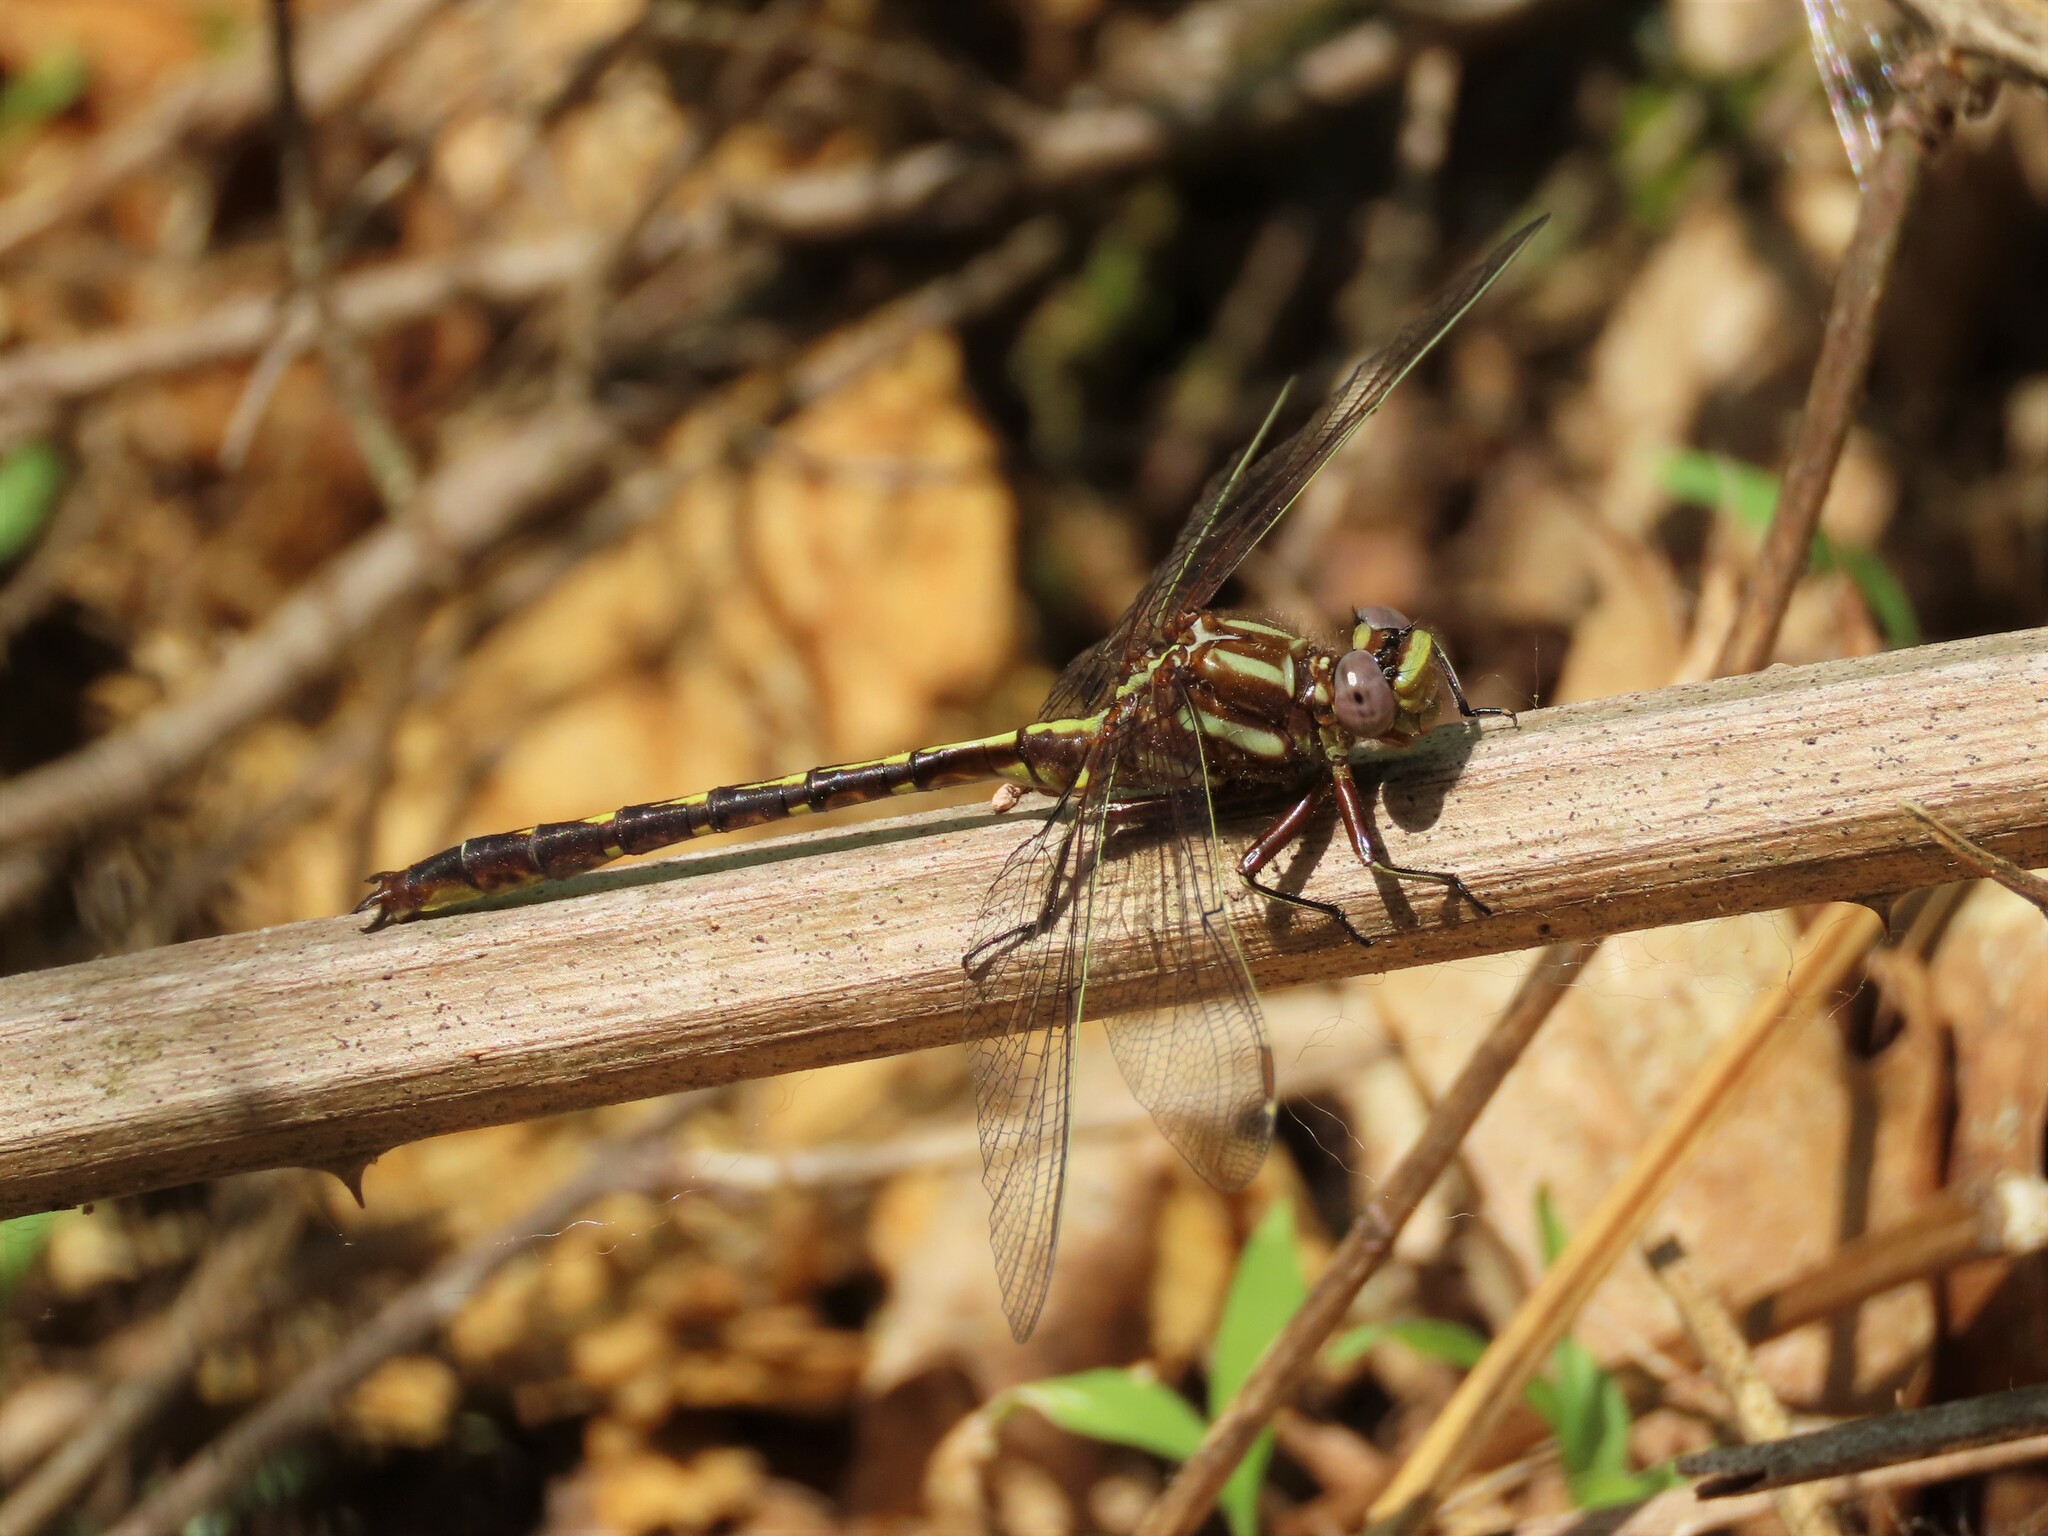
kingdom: Animalia
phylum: Arthropoda
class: Insecta
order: Odonata
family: Gomphidae
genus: Phanogomphus
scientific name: Phanogomphus lividus
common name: Ashy clubtail
